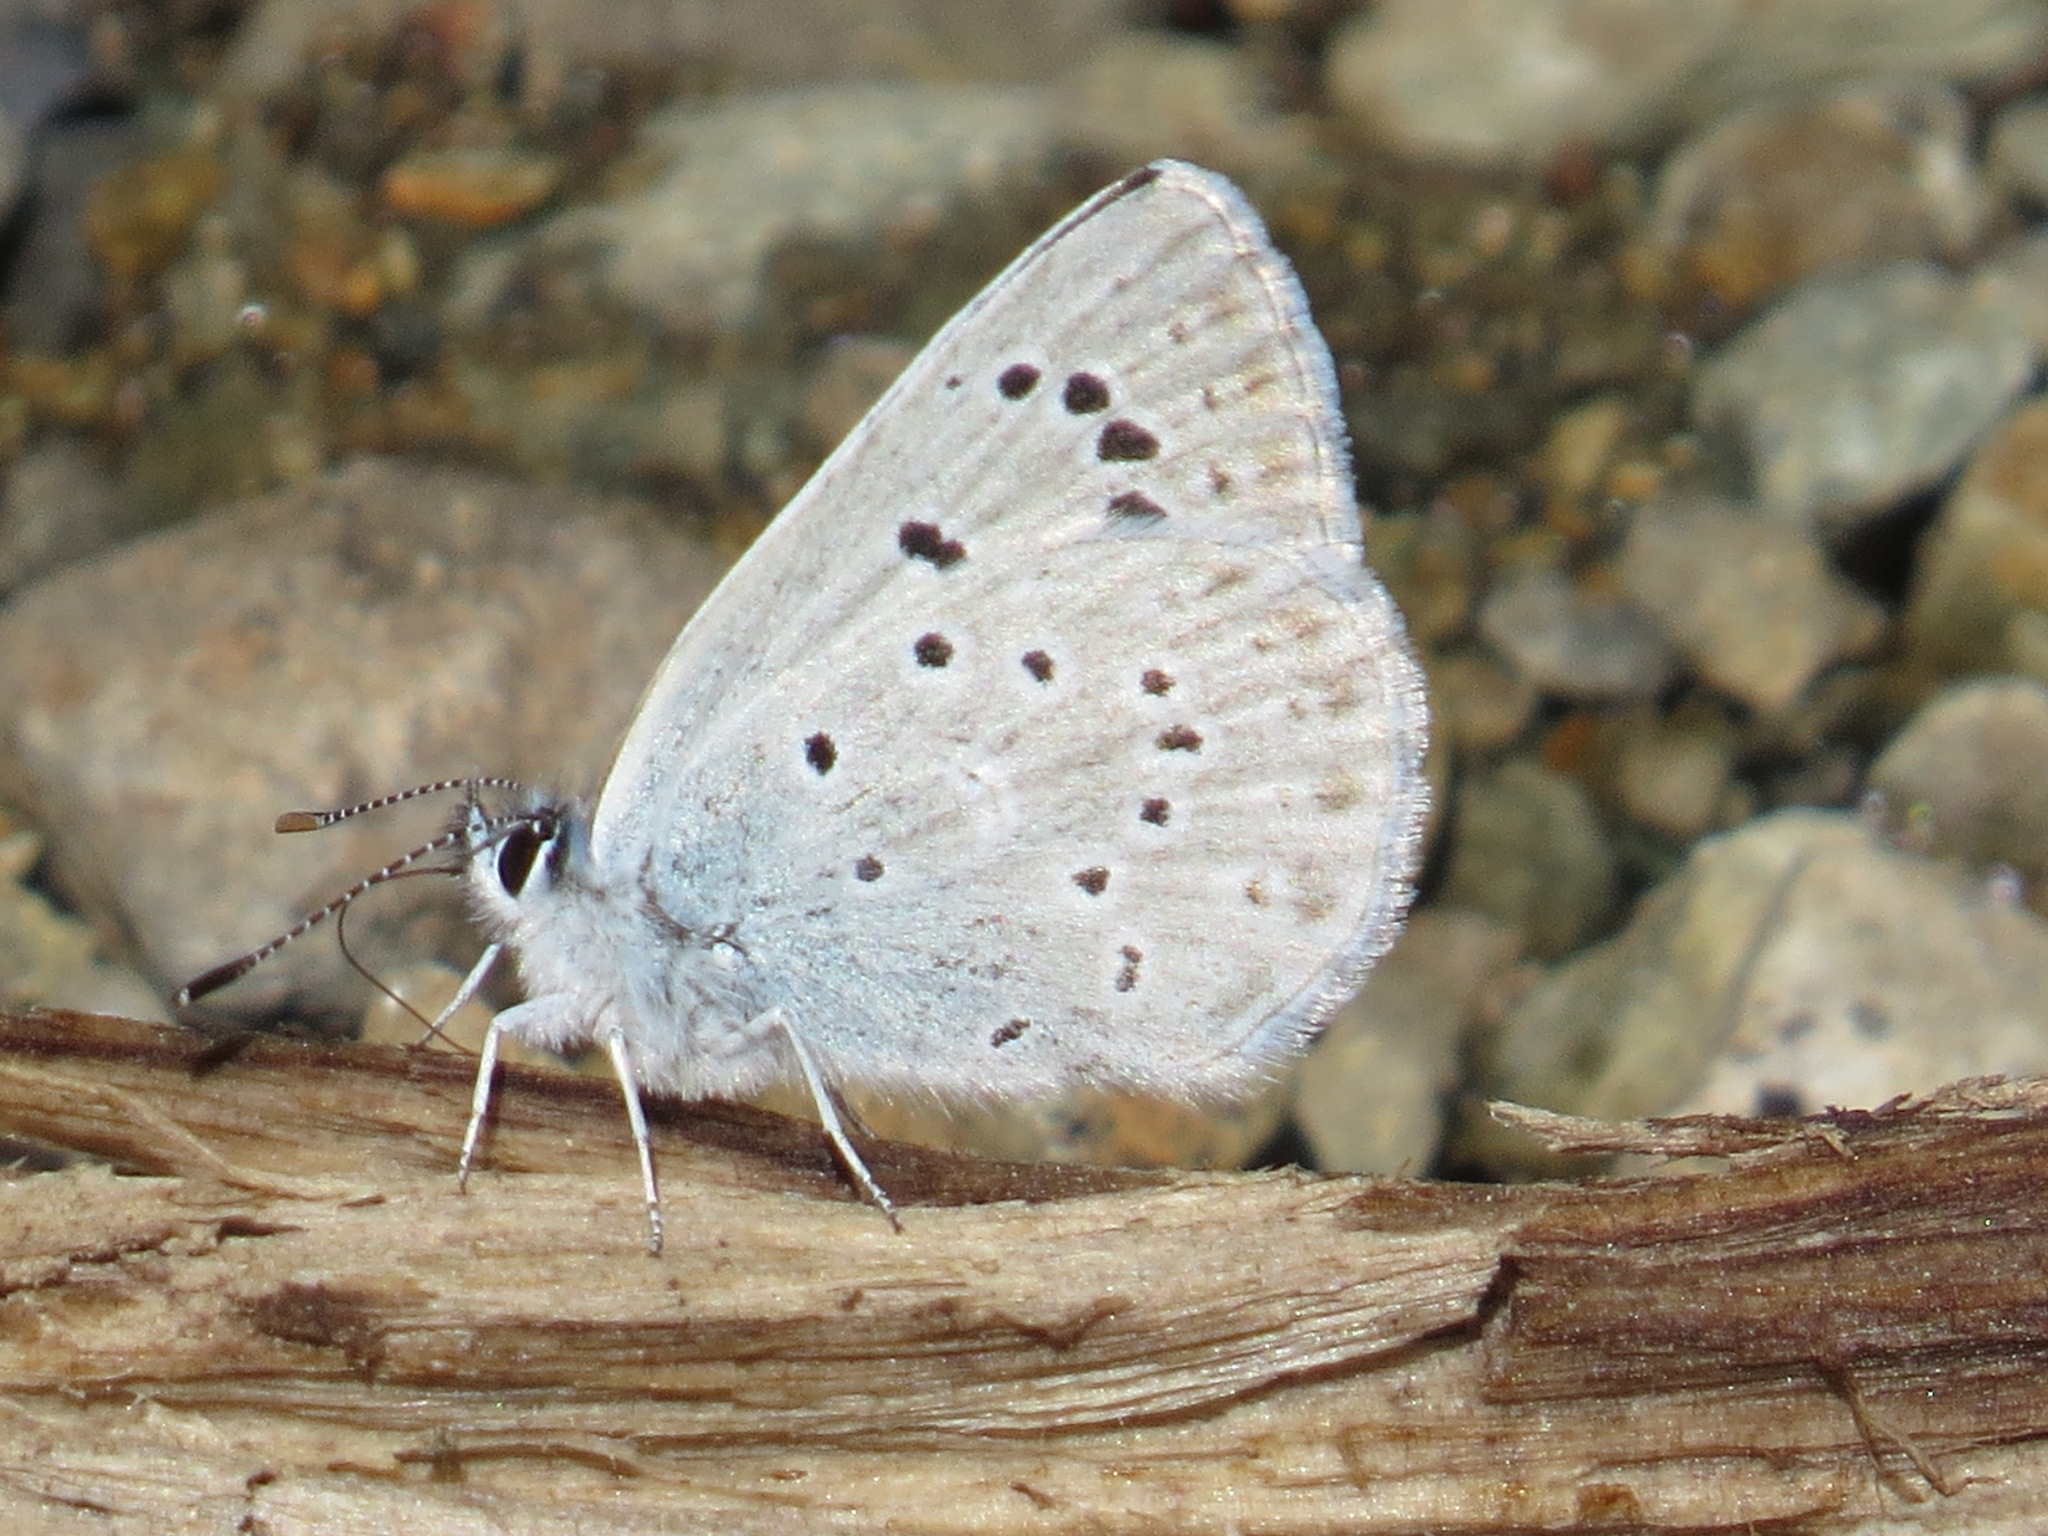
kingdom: Animalia
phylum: Arthropoda
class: Insecta
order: Lepidoptera
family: Lycaenidae
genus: Icaricia
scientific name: Icaricia icarioides
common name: Boisduval's blue
